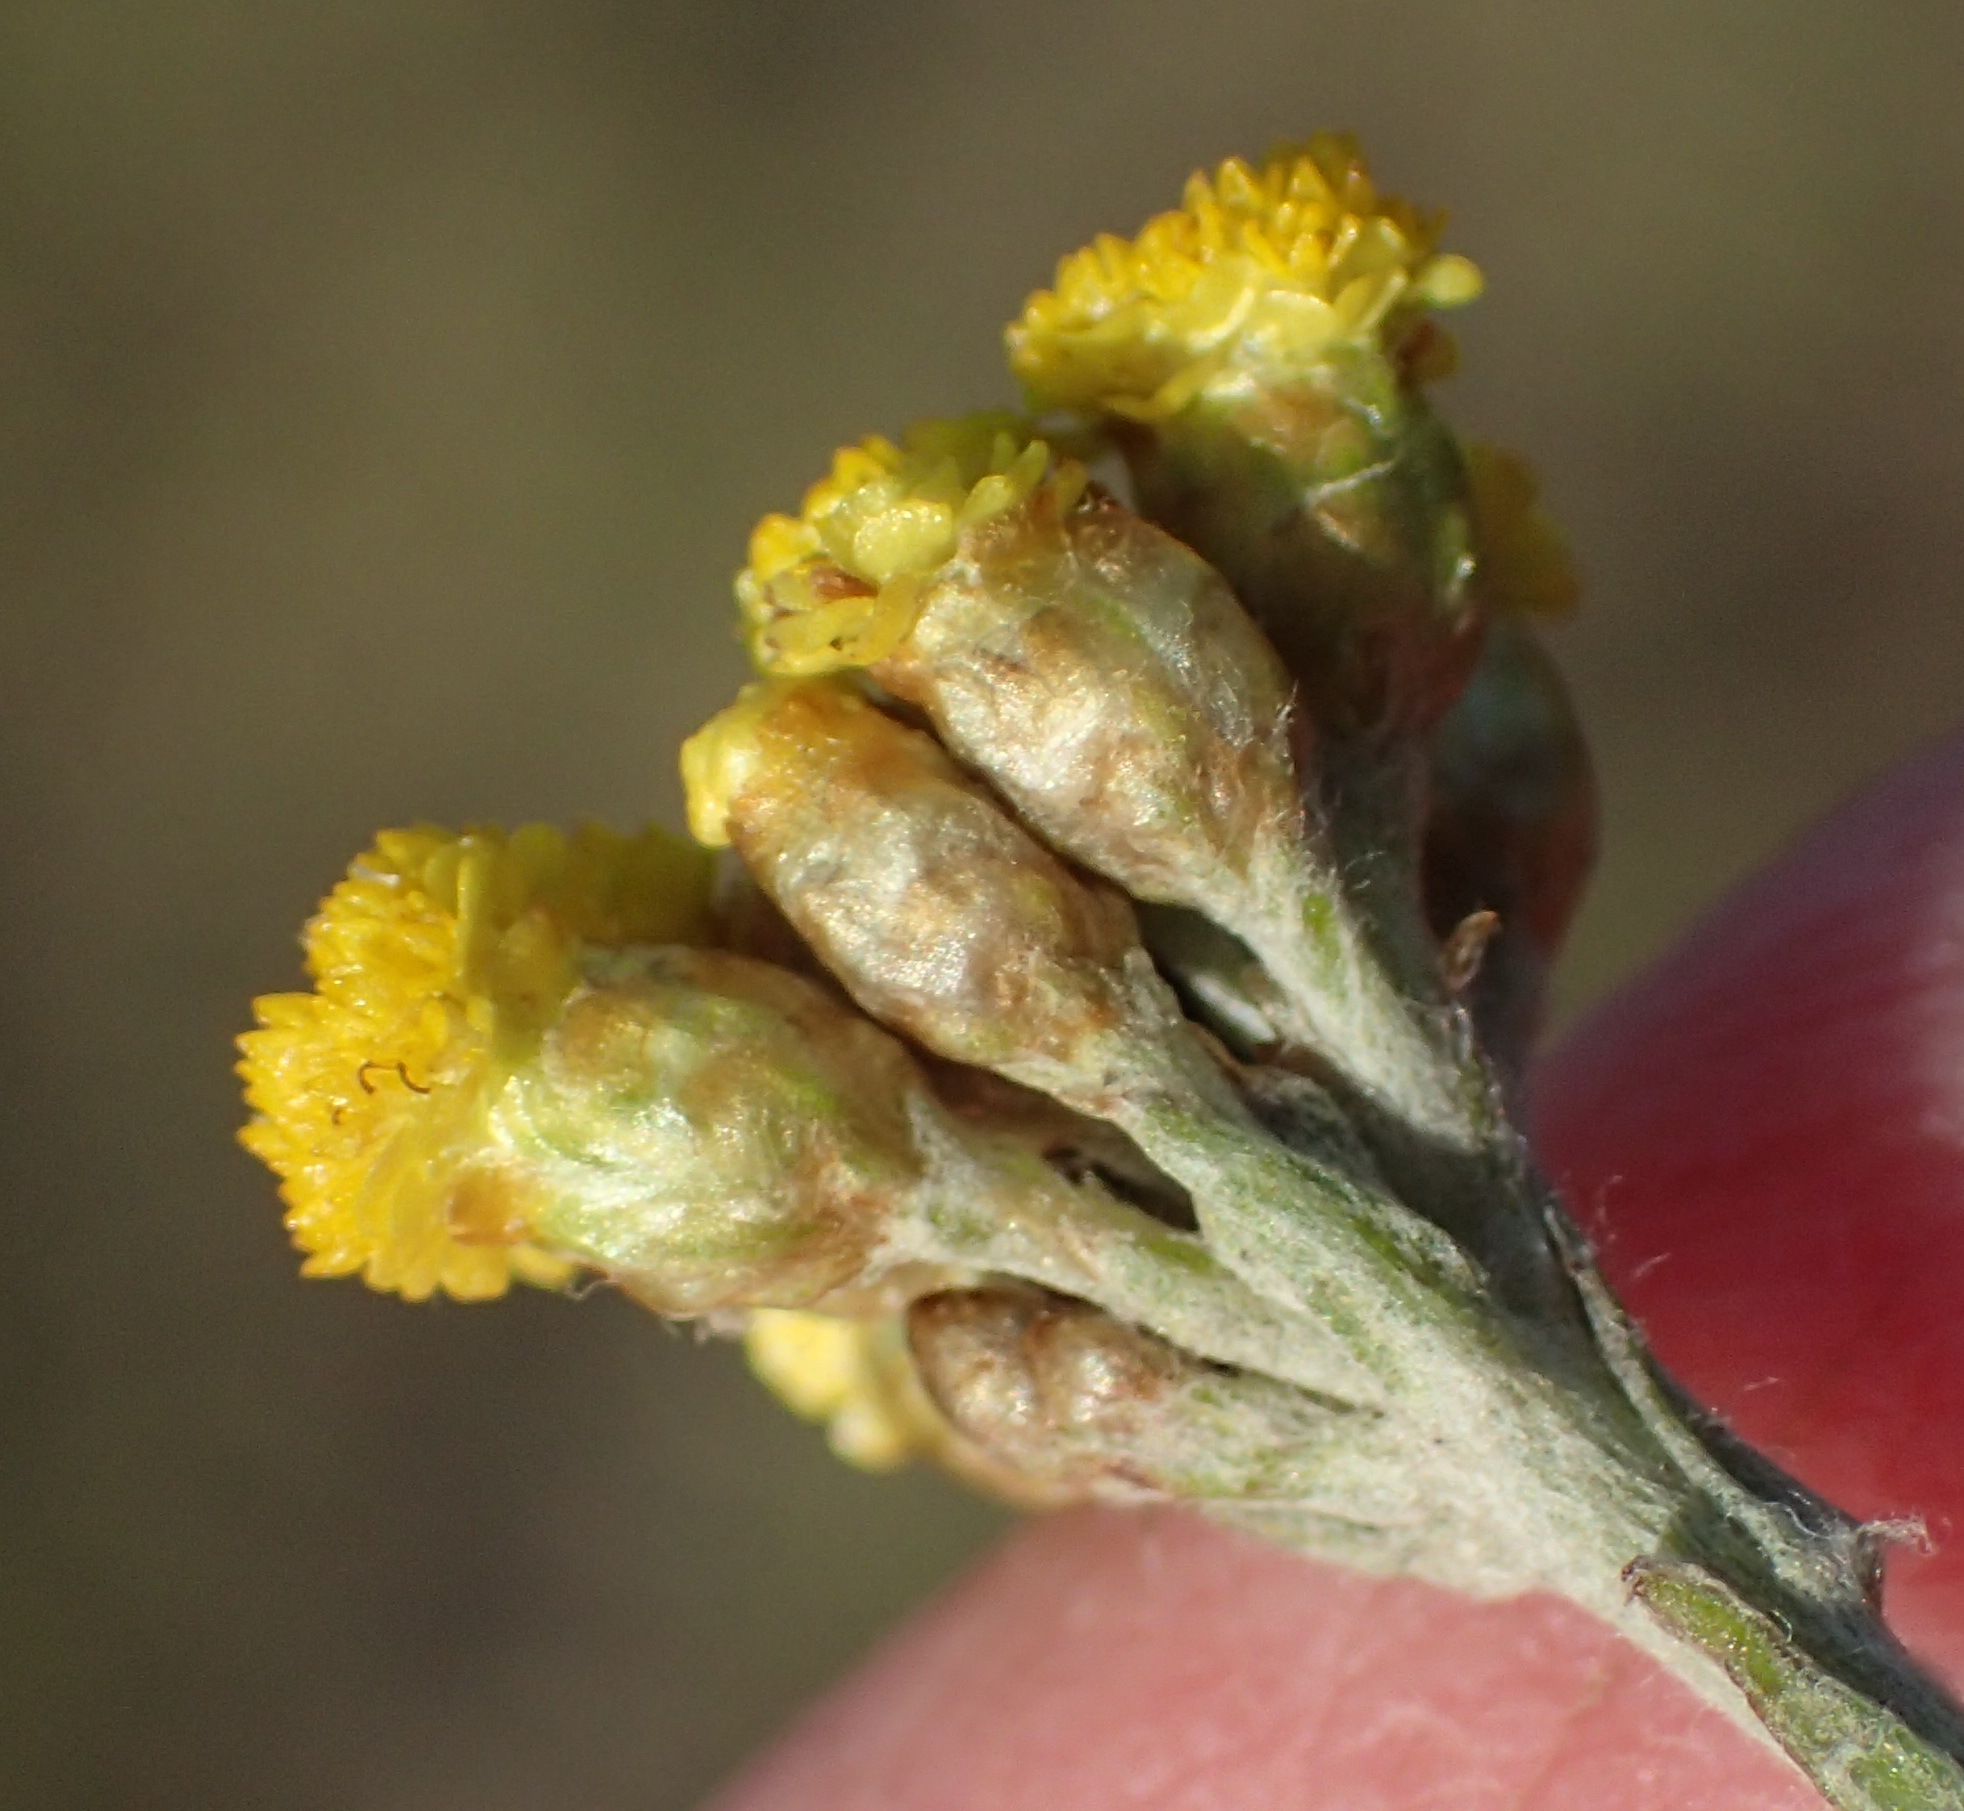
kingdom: Plantae
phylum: Tracheophyta
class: Magnoliopsida
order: Asterales
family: Asteraceae
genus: Helichrysum
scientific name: Helichrysum cymosum
